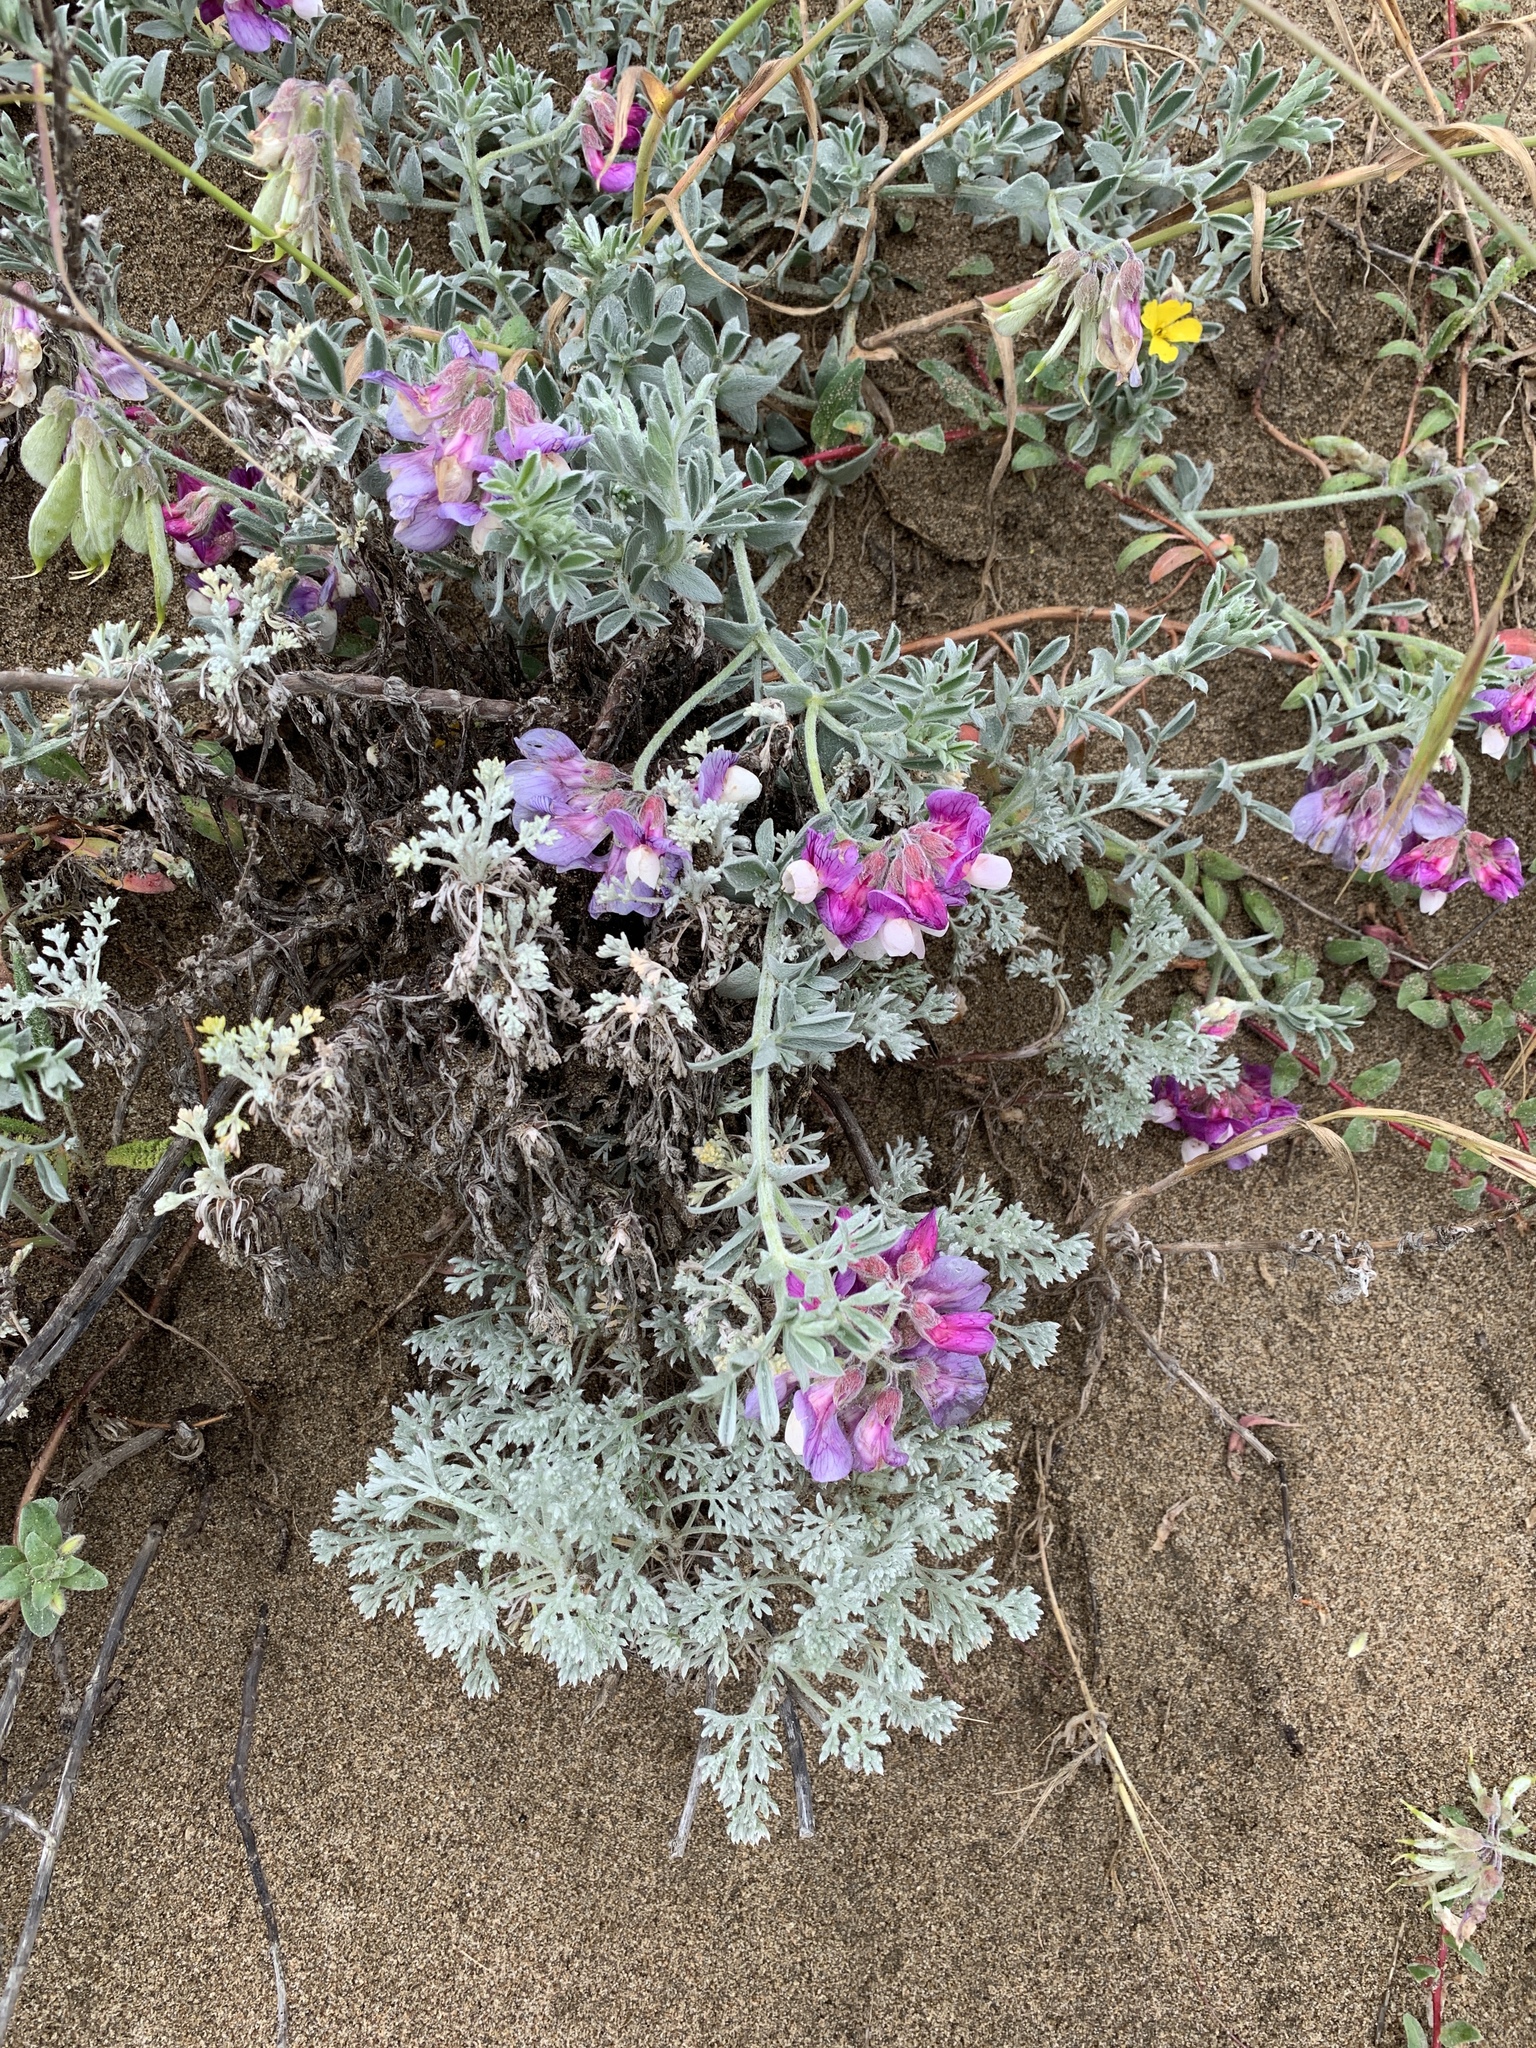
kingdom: Plantae
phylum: Tracheophyta
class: Magnoliopsida
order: Fabales
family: Fabaceae
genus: Lathyrus
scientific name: Lathyrus littoralis
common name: Dune sweet pea
